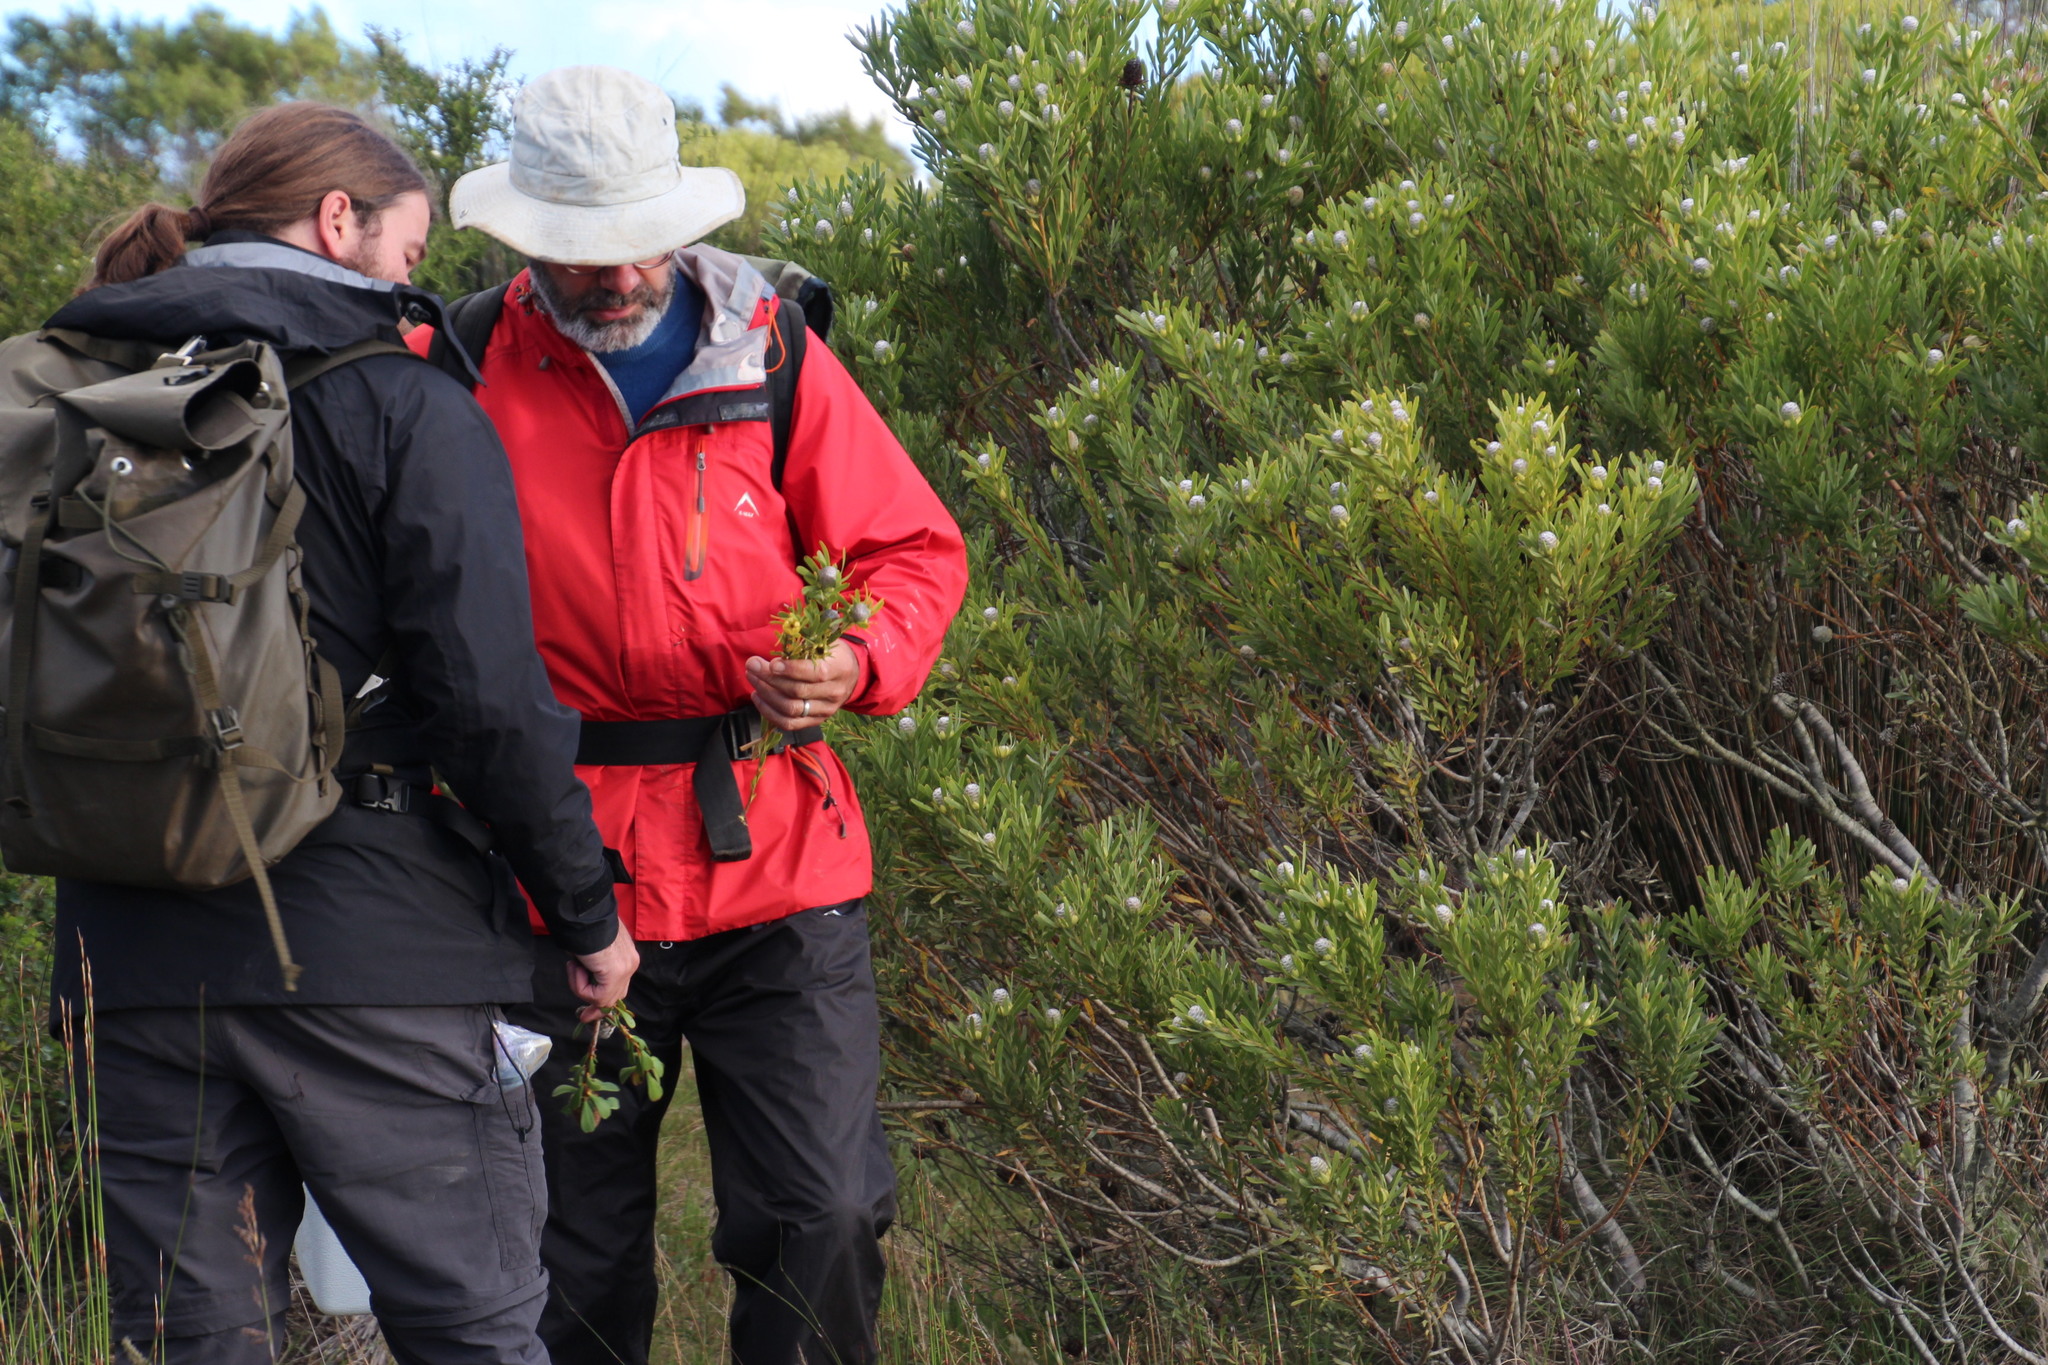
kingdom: Plantae
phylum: Tracheophyta
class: Magnoliopsida
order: Proteales
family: Proteaceae
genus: Leucadendron
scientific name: Leucadendron meridianum
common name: Limestone conebush
